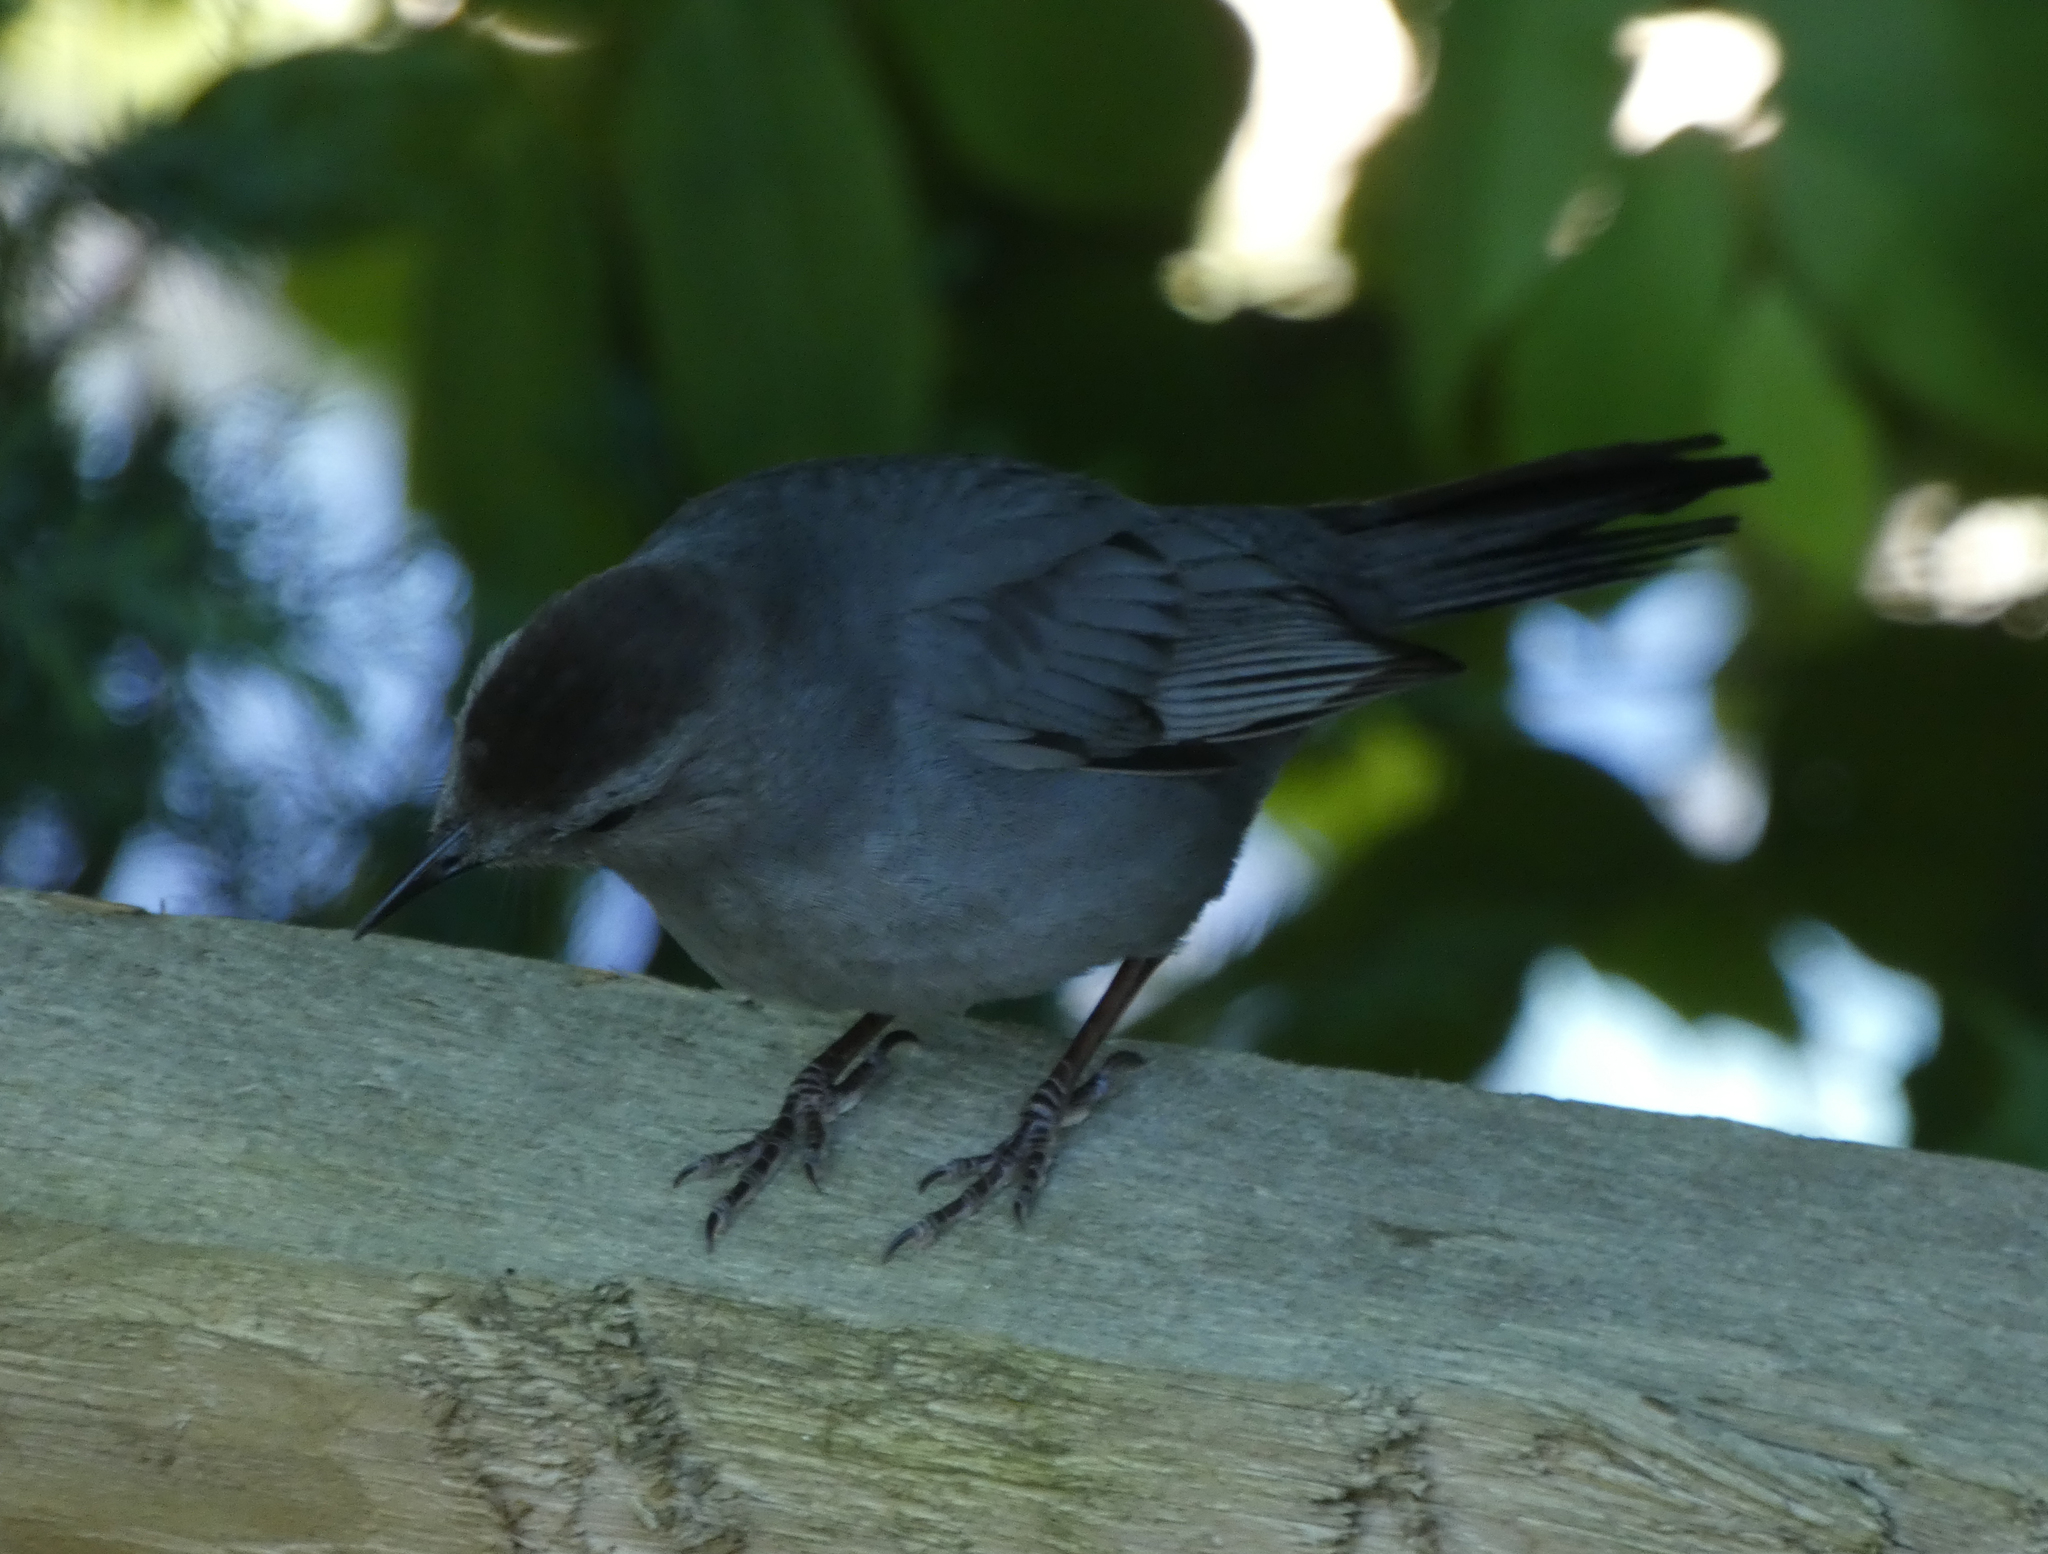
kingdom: Animalia
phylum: Chordata
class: Aves
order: Passeriformes
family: Mimidae
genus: Dumetella
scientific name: Dumetella carolinensis
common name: Gray catbird
